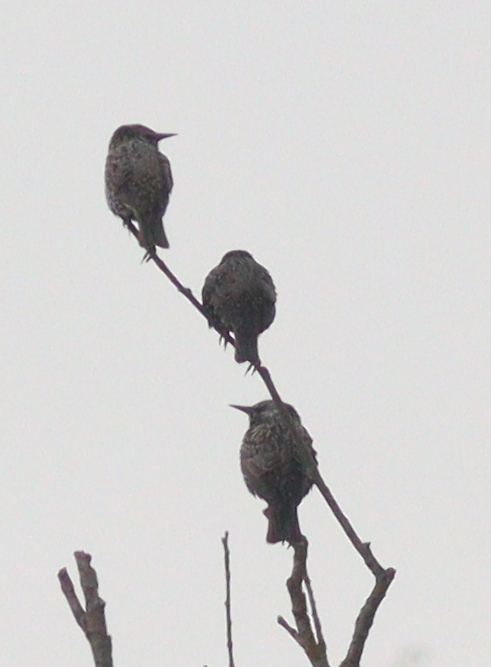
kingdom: Animalia
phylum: Chordata
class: Aves
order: Passeriformes
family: Sturnidae
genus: Sturnus
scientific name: Sturnus vulgaris
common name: Common starling
